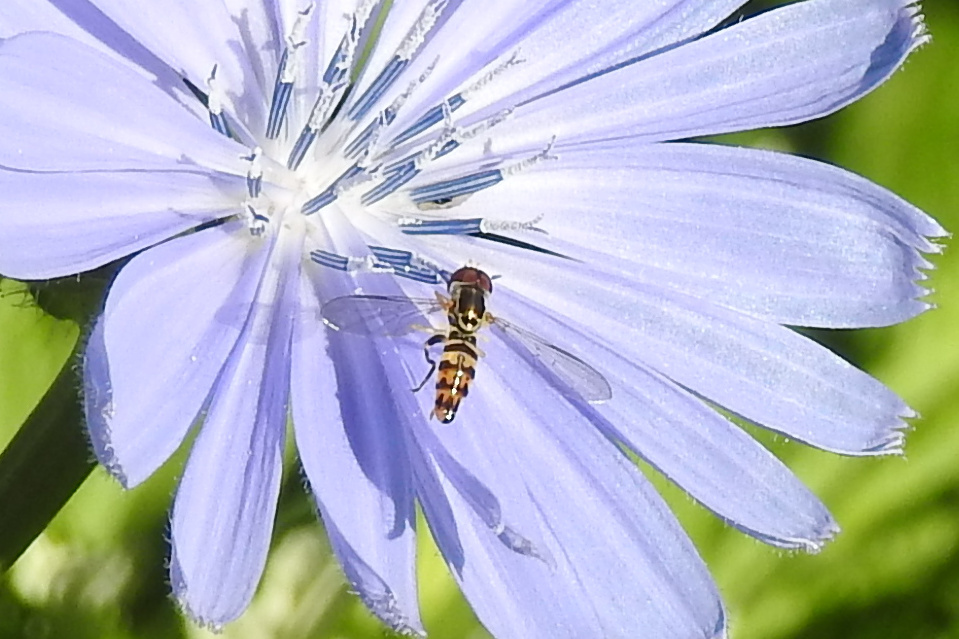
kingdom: Animalia
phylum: Arthropoda
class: Insecta
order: Diptera
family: Syrphidae
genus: Toxomerus
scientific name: Toxomerus geminatus
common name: Eastern calligrapher
